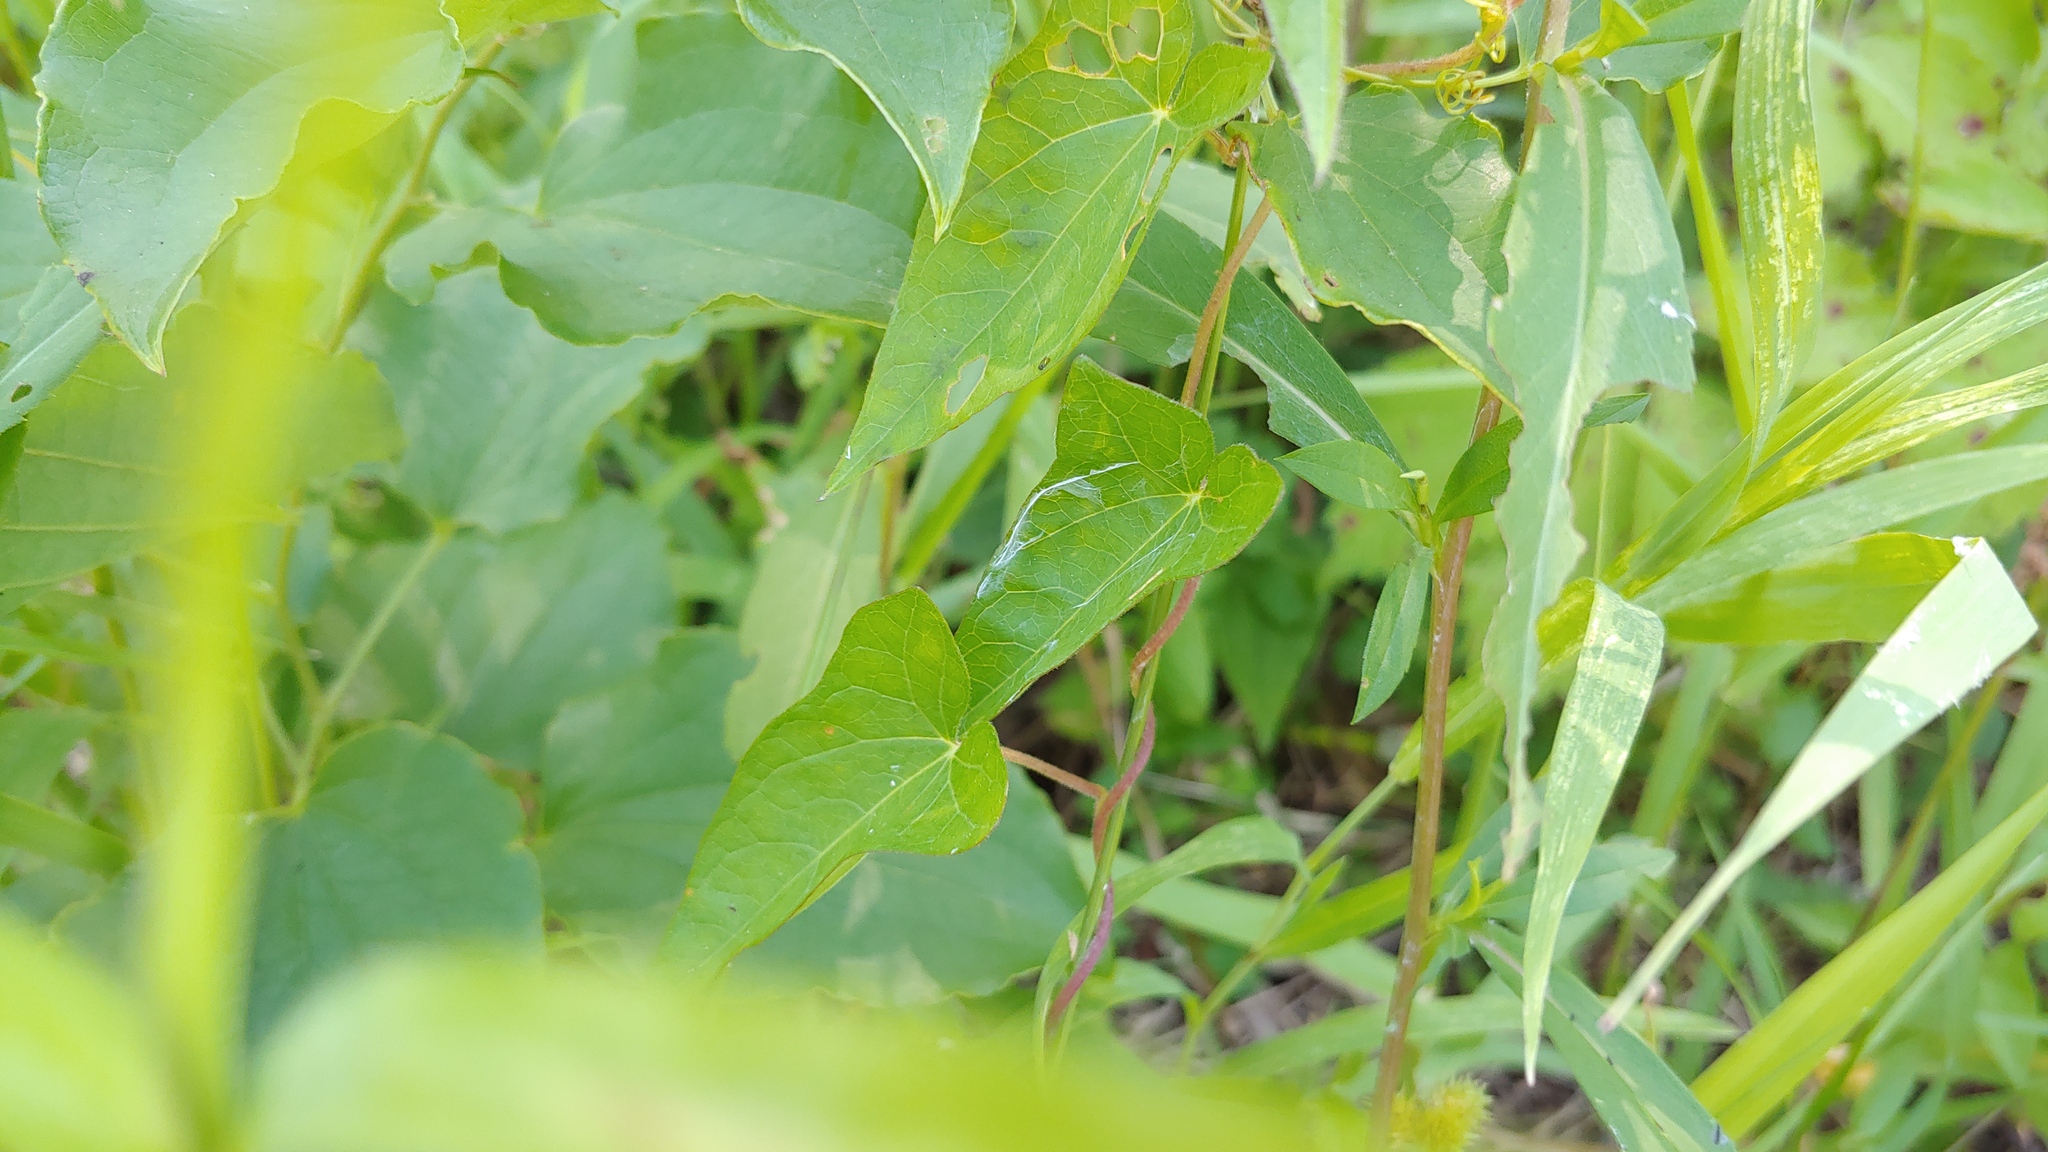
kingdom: Plantae
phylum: Tracheophyta
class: Magnoliopsida
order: Solanales
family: Convolvulaceae
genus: Calystegia
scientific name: Calystegia sepium
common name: Hedge bindweed
